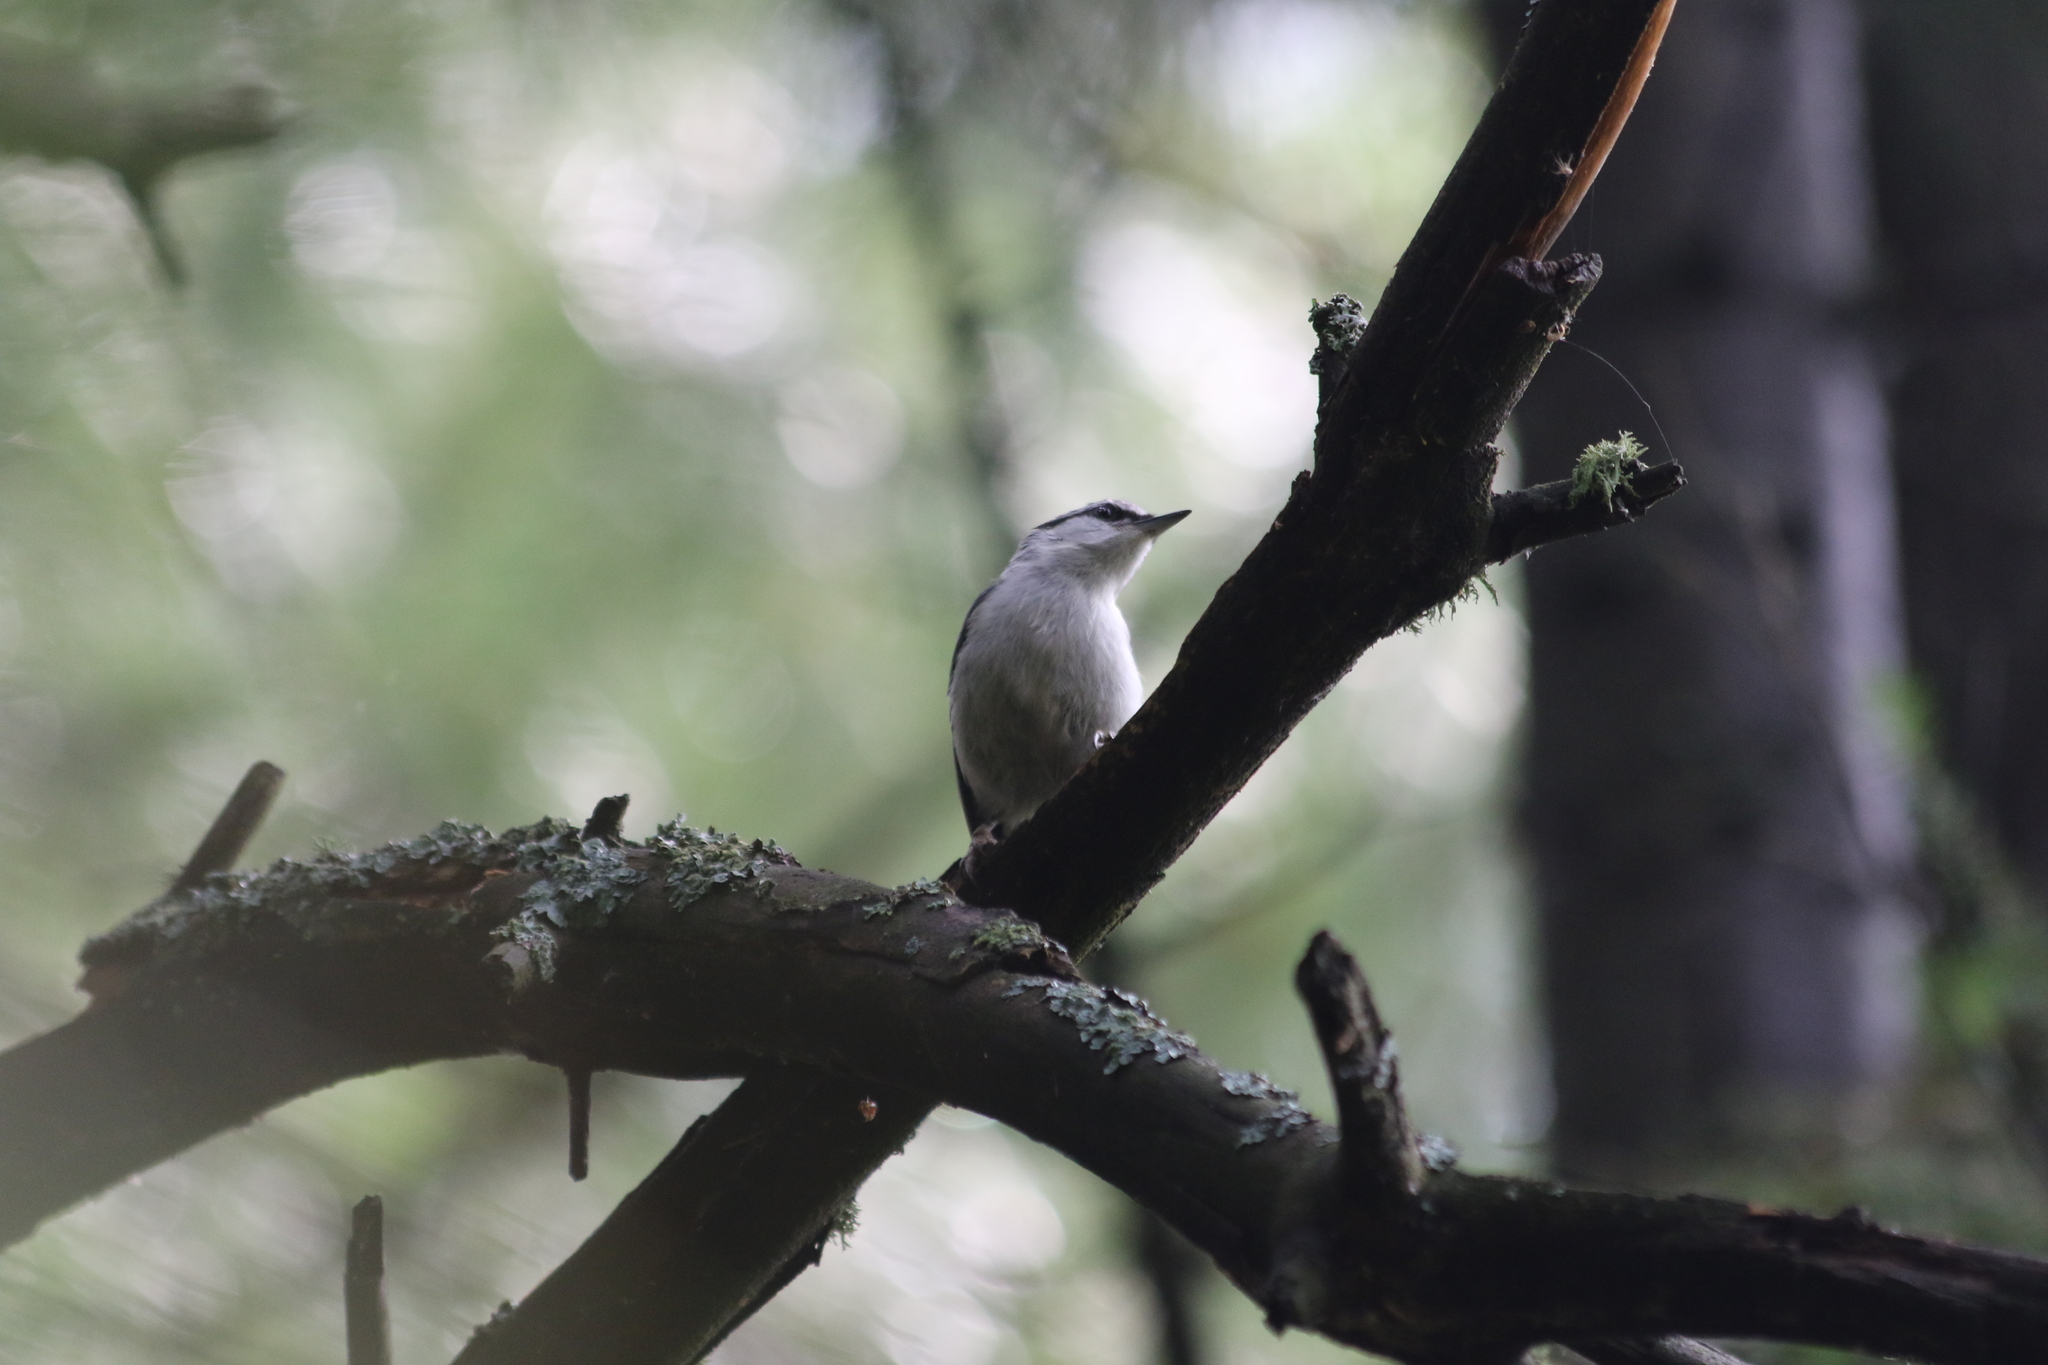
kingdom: Animalia
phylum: Chordata
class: Aves
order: Passeriformes
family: Sittidae
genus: Sitta
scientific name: Sitta europaea
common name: Eurasian nuthatch
